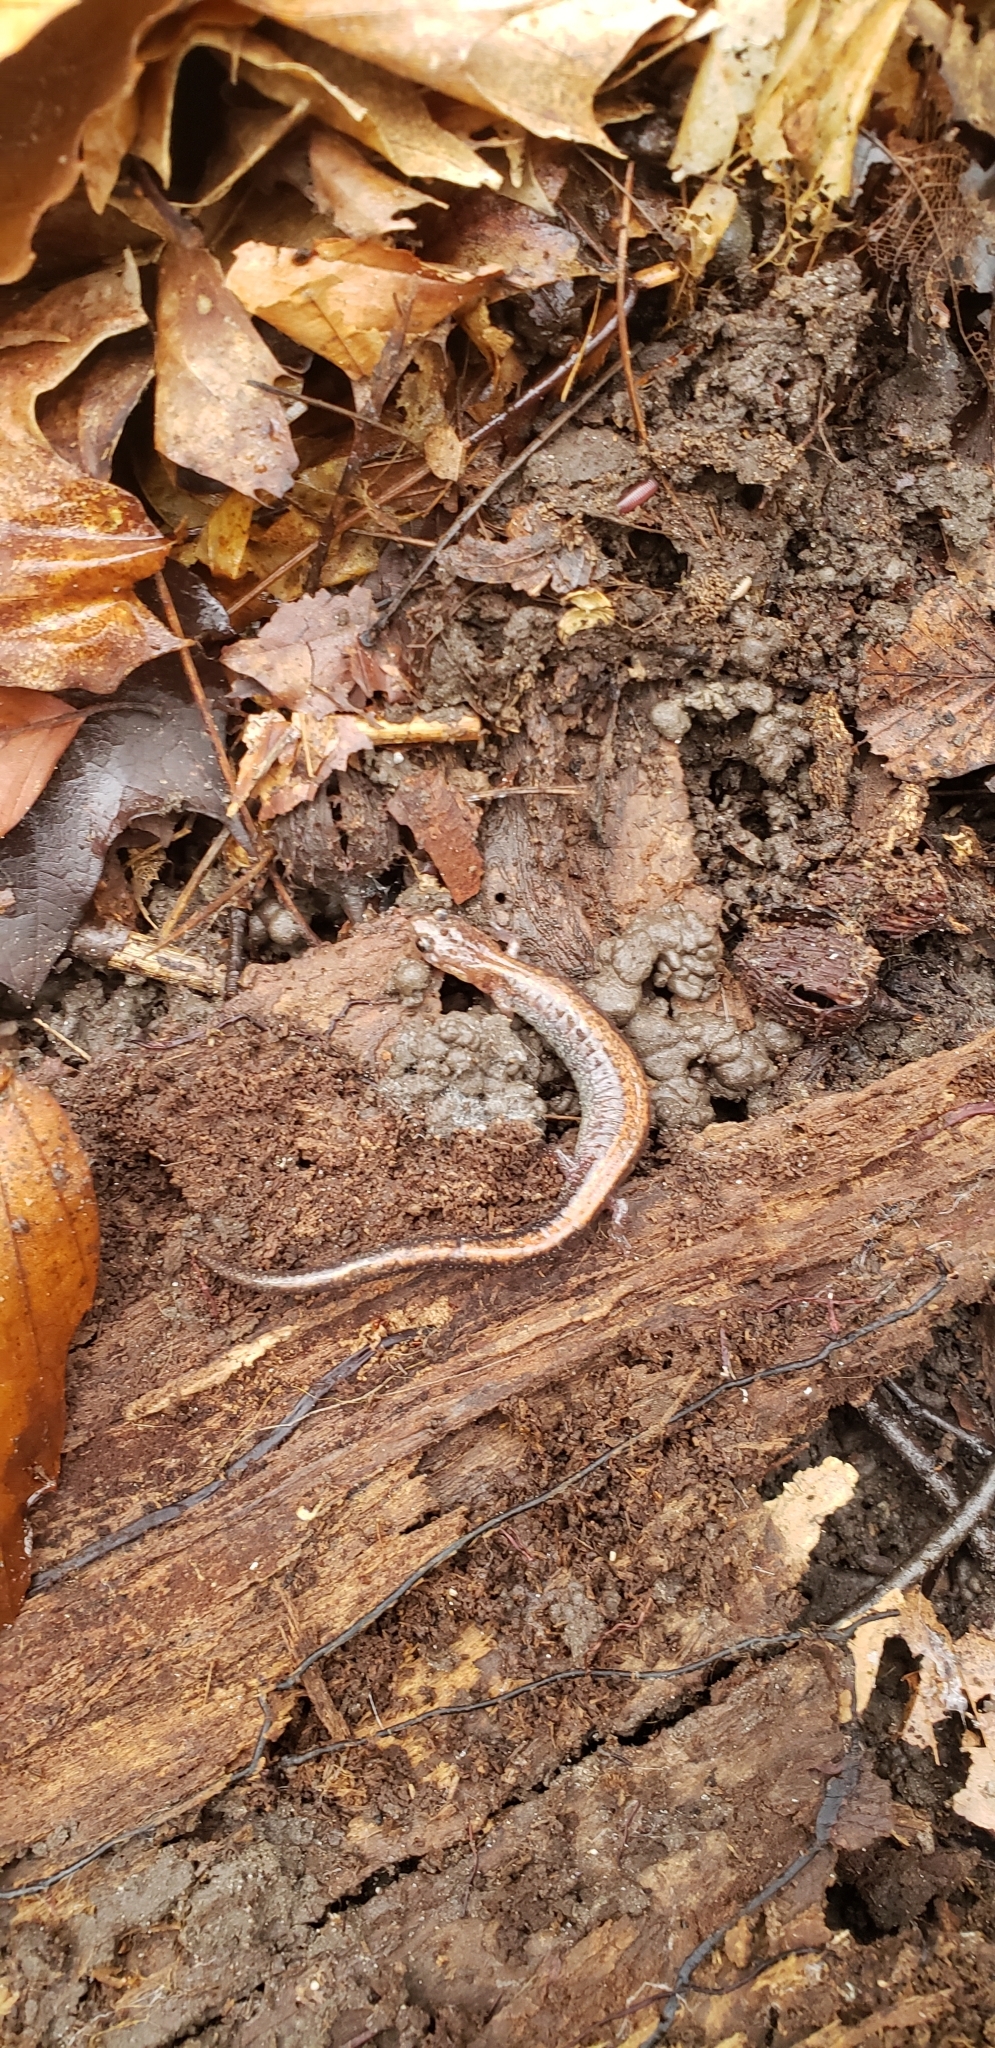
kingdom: Animalia
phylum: Chordata
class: Amphibia
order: Caudata
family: Plethodontidae
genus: Plethodon
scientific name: Plethodon cinereus
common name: Redback salamander
